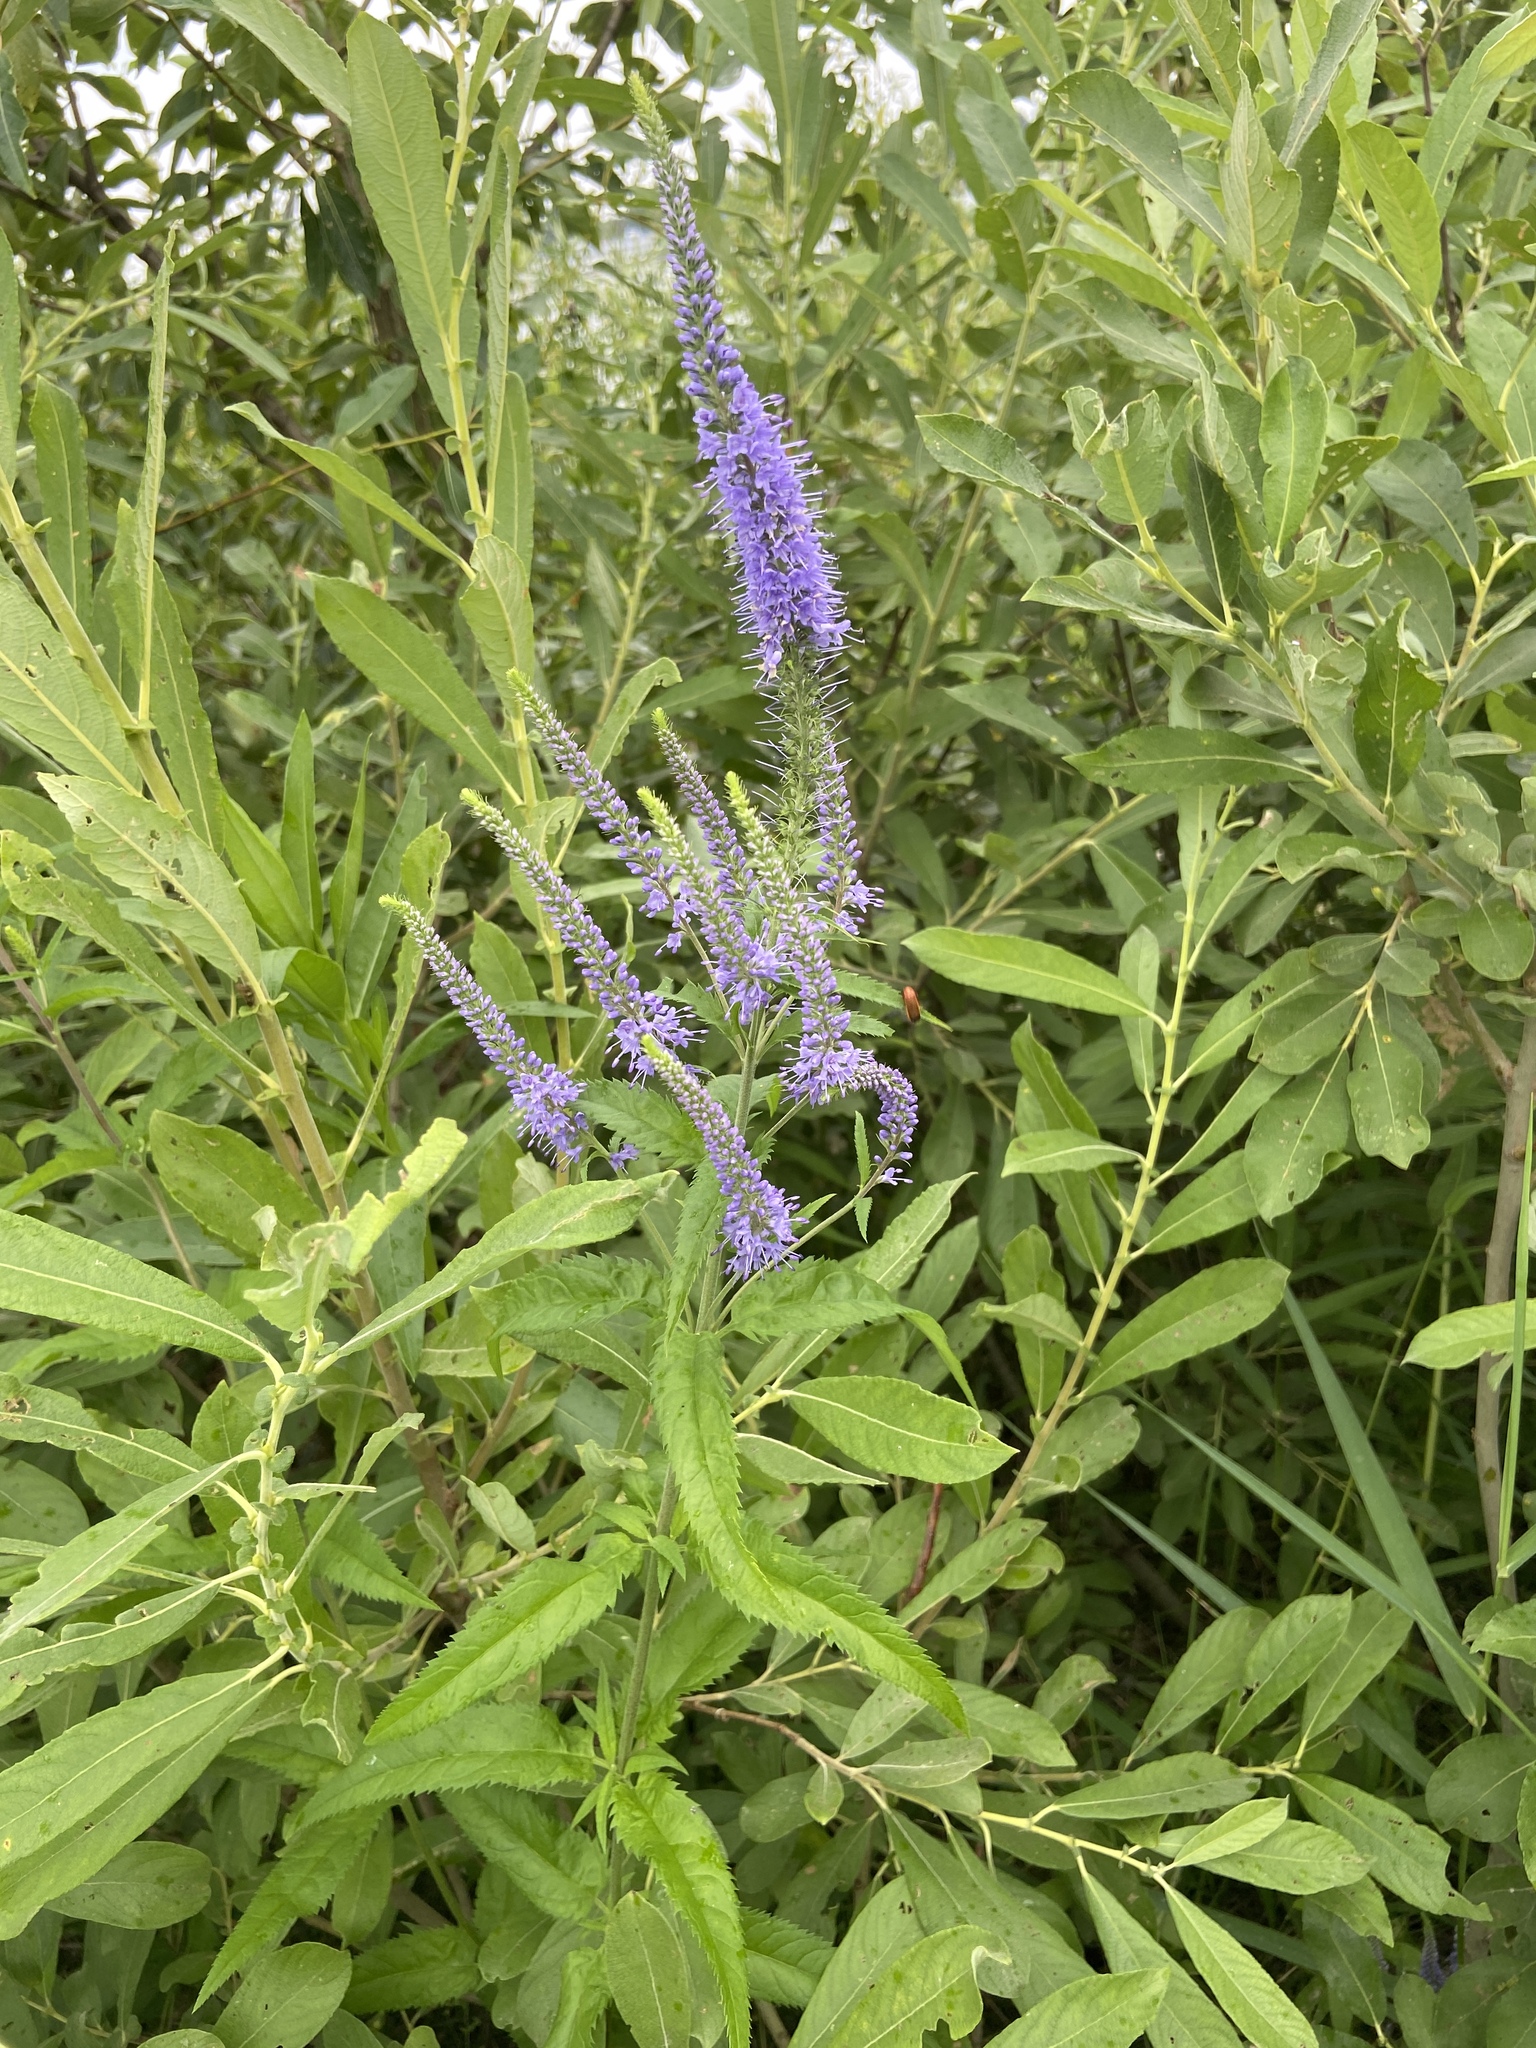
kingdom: Plantae
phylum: Tracheophyta
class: Magnoliopsida
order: Lamiales
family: Plantaginaceae
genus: Veronica
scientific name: Veronica longifolia
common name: Garden speedwell
